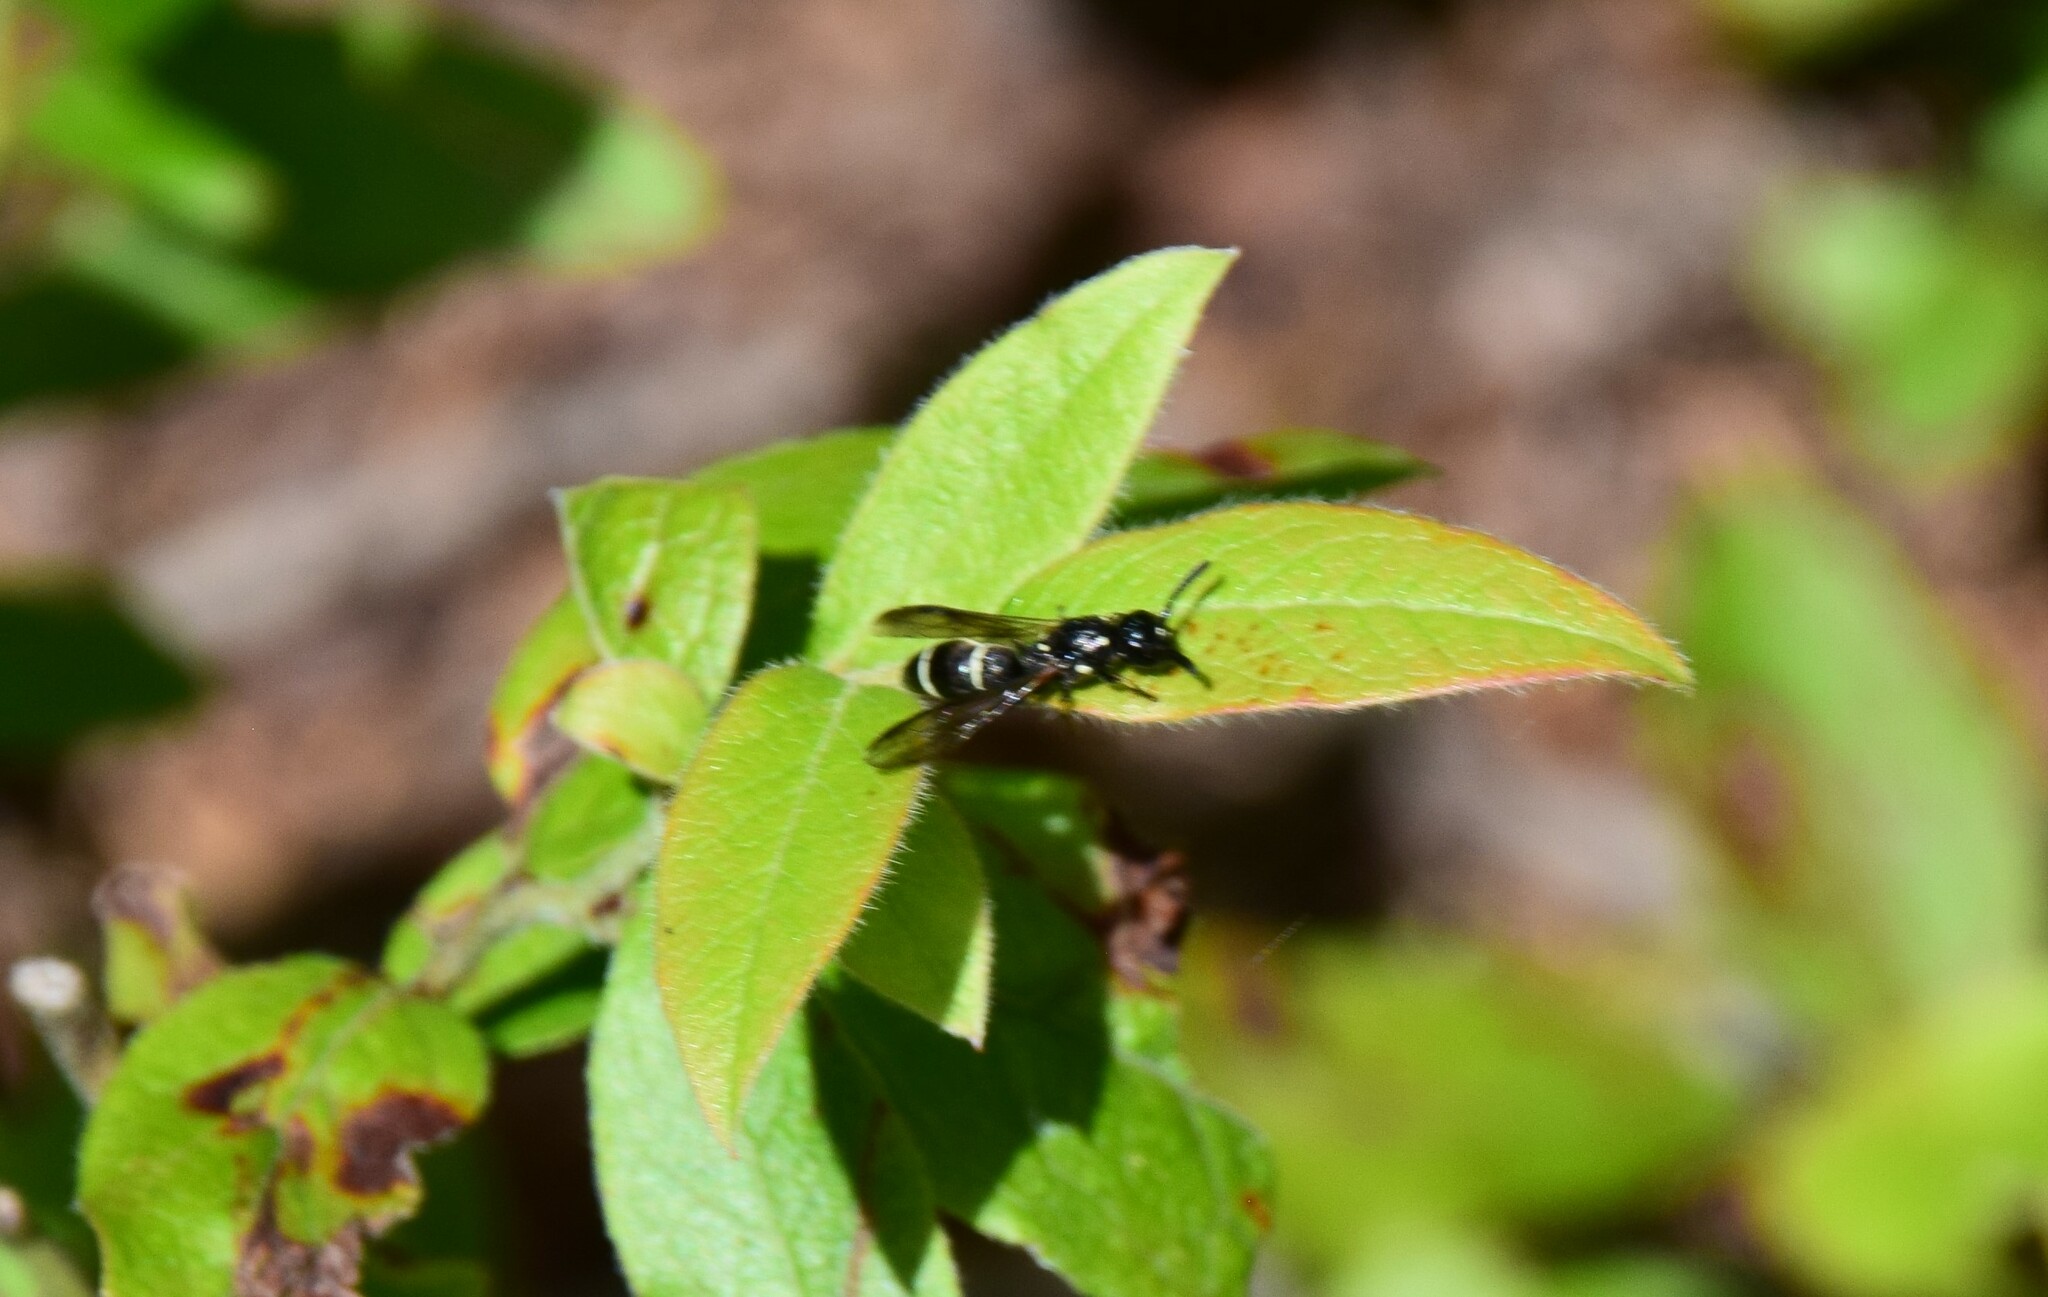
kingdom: Animalia
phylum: Arthropoda
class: Insecta
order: Hymenoptera
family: Eumenidae
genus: Symmorphus
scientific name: Symmorphus
